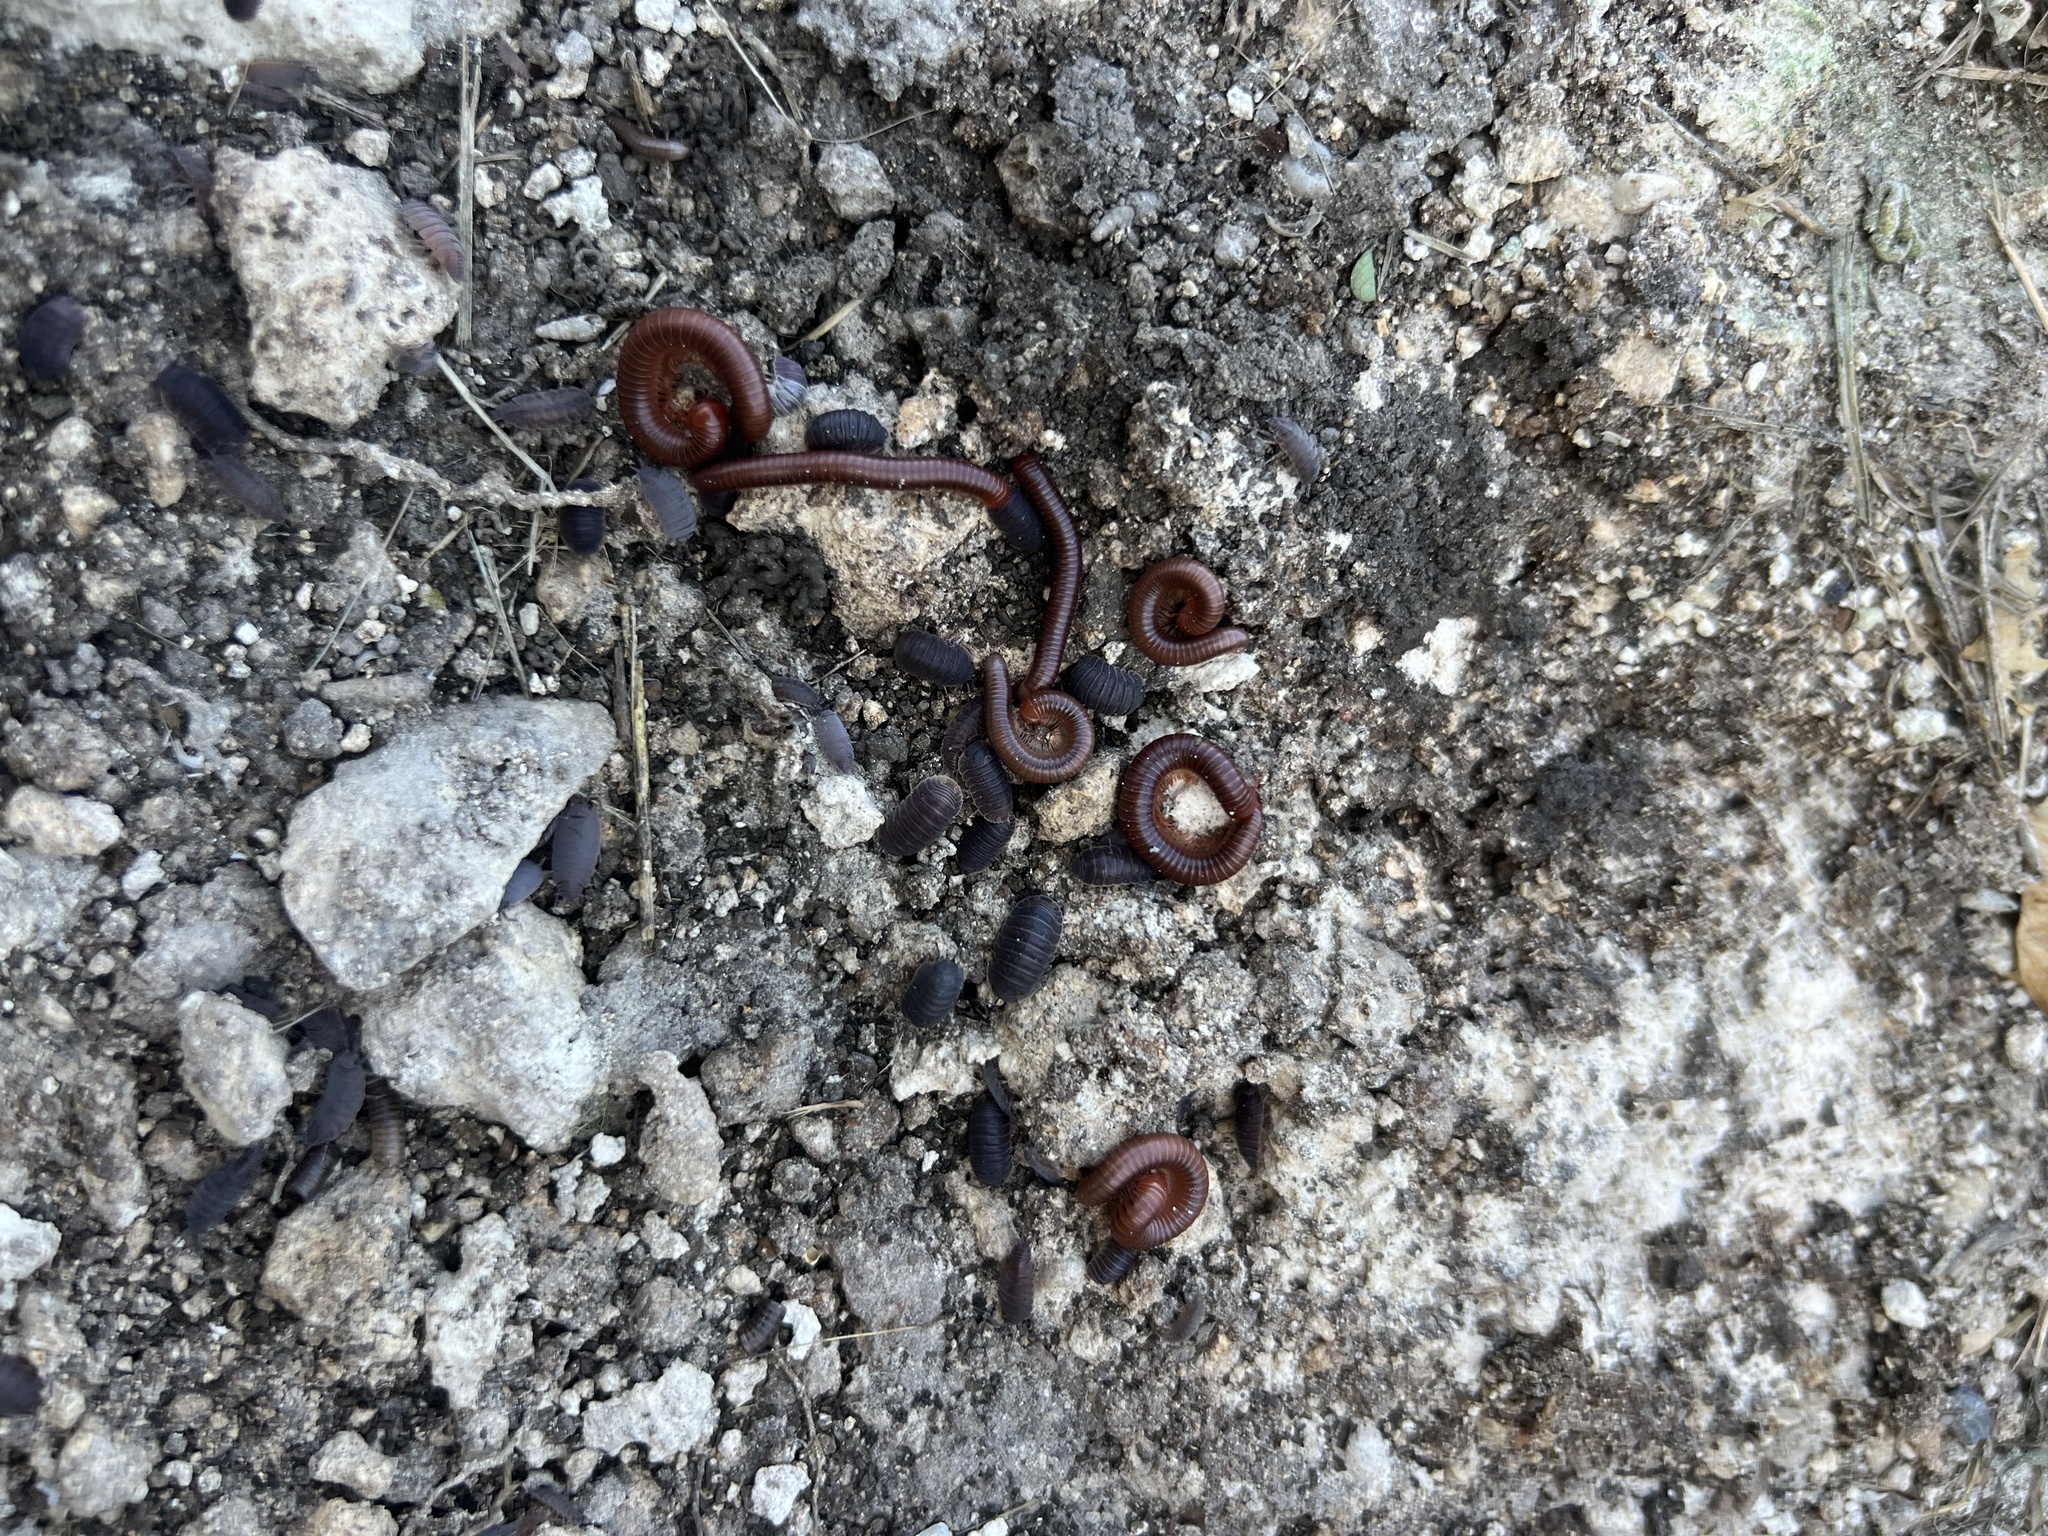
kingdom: Animalia
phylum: Arthropoda
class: Diplopoda
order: Spirobolida
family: Pachybolidae
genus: Trigoniulus
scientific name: Trigoniulus corallinus
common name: Millipede
